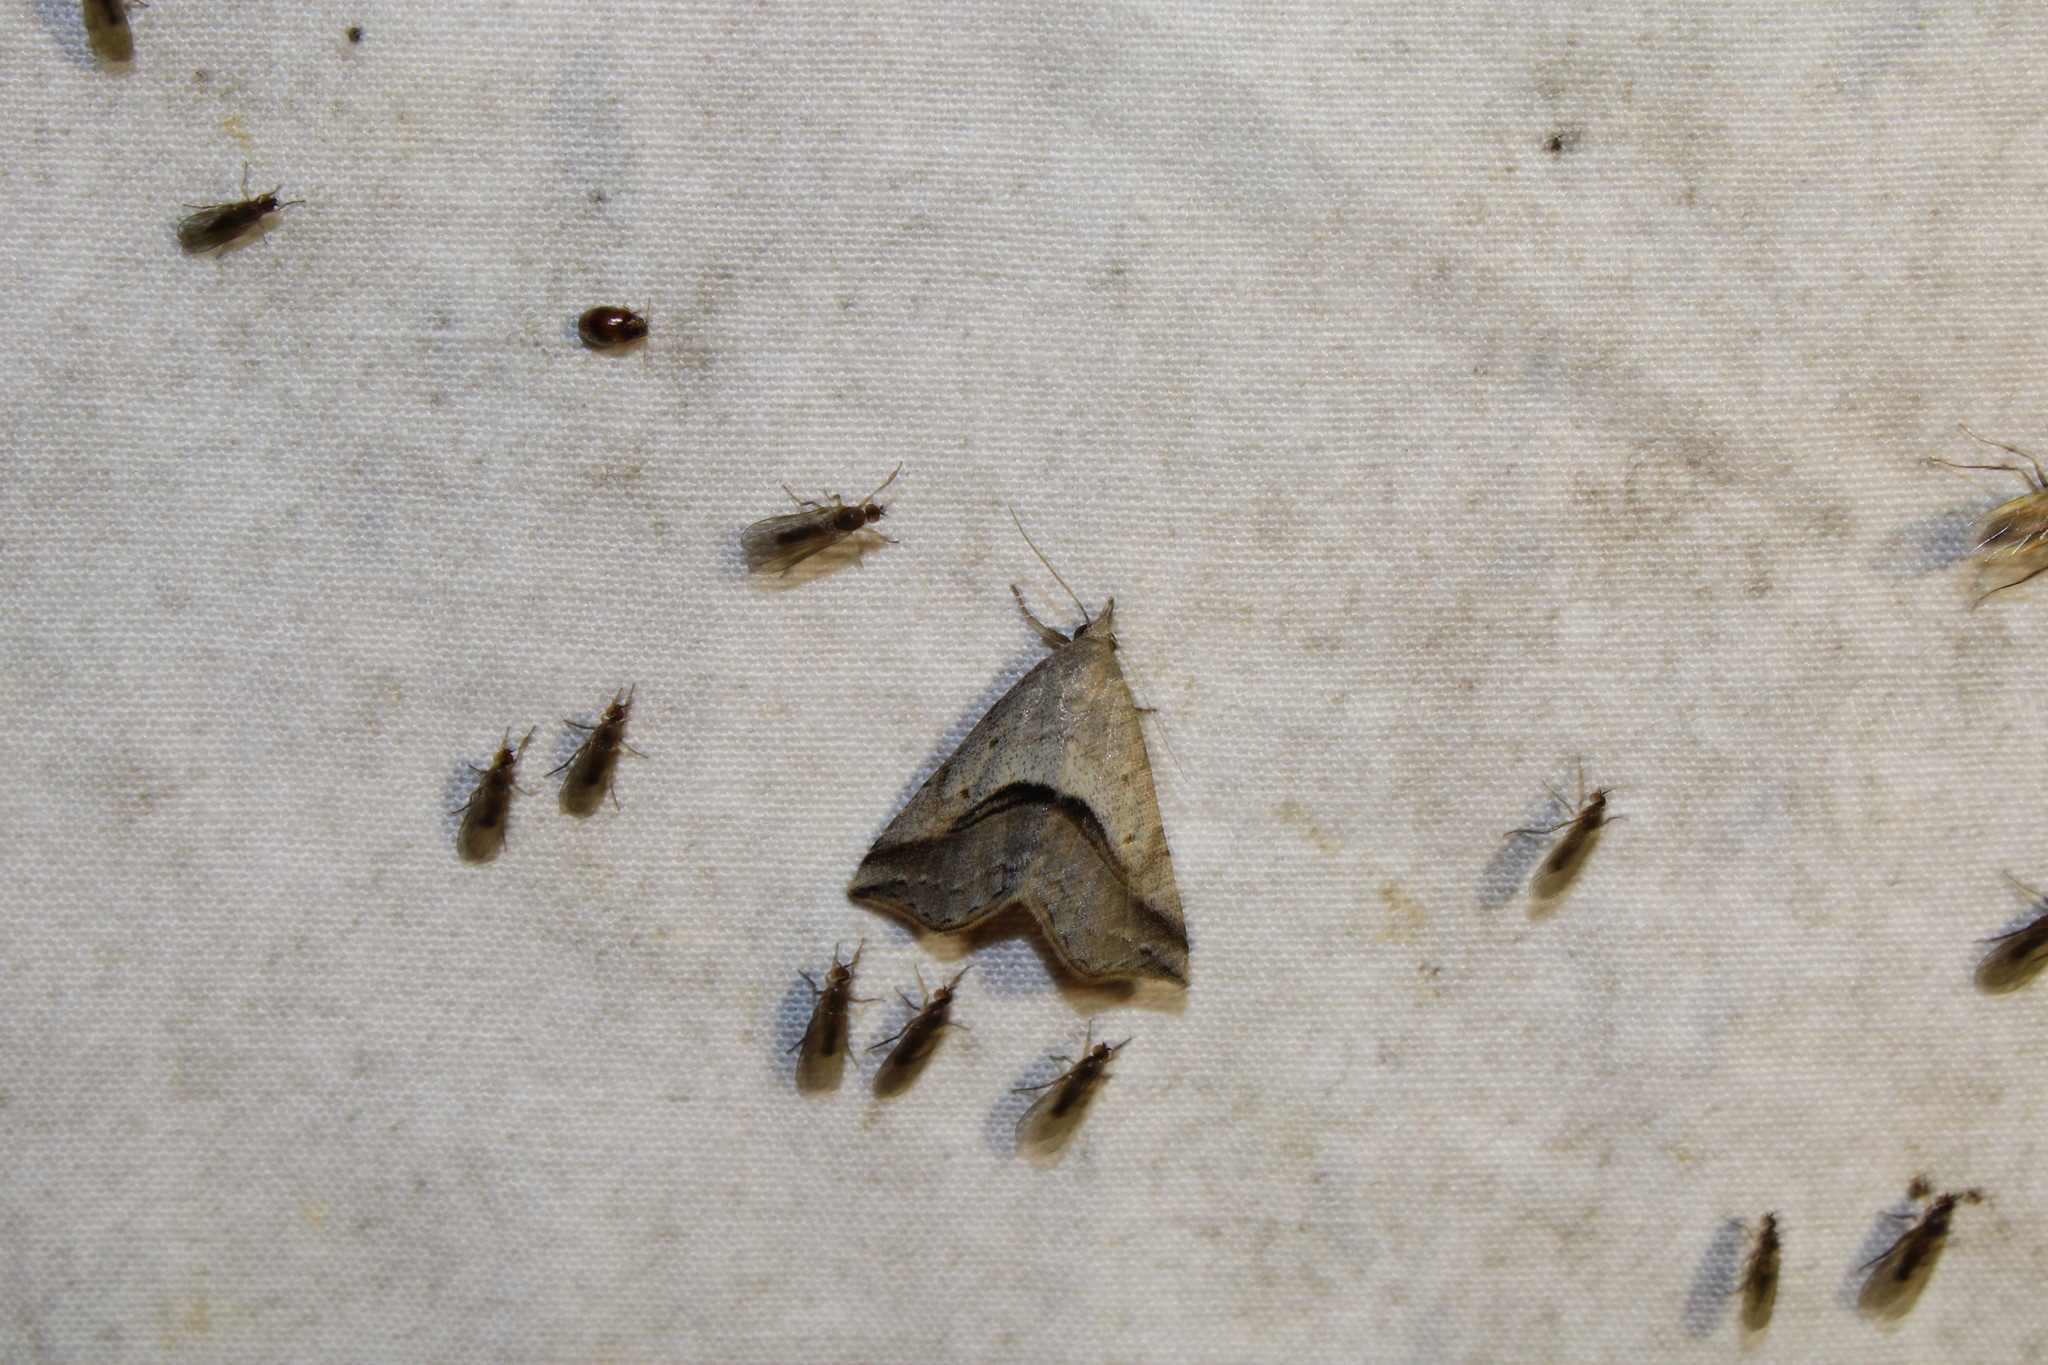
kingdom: Animalia
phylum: Arthropoda
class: Insecta
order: Lepidoptera
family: Erebidae
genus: Spargaloma
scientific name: Spargaloma perditalis
